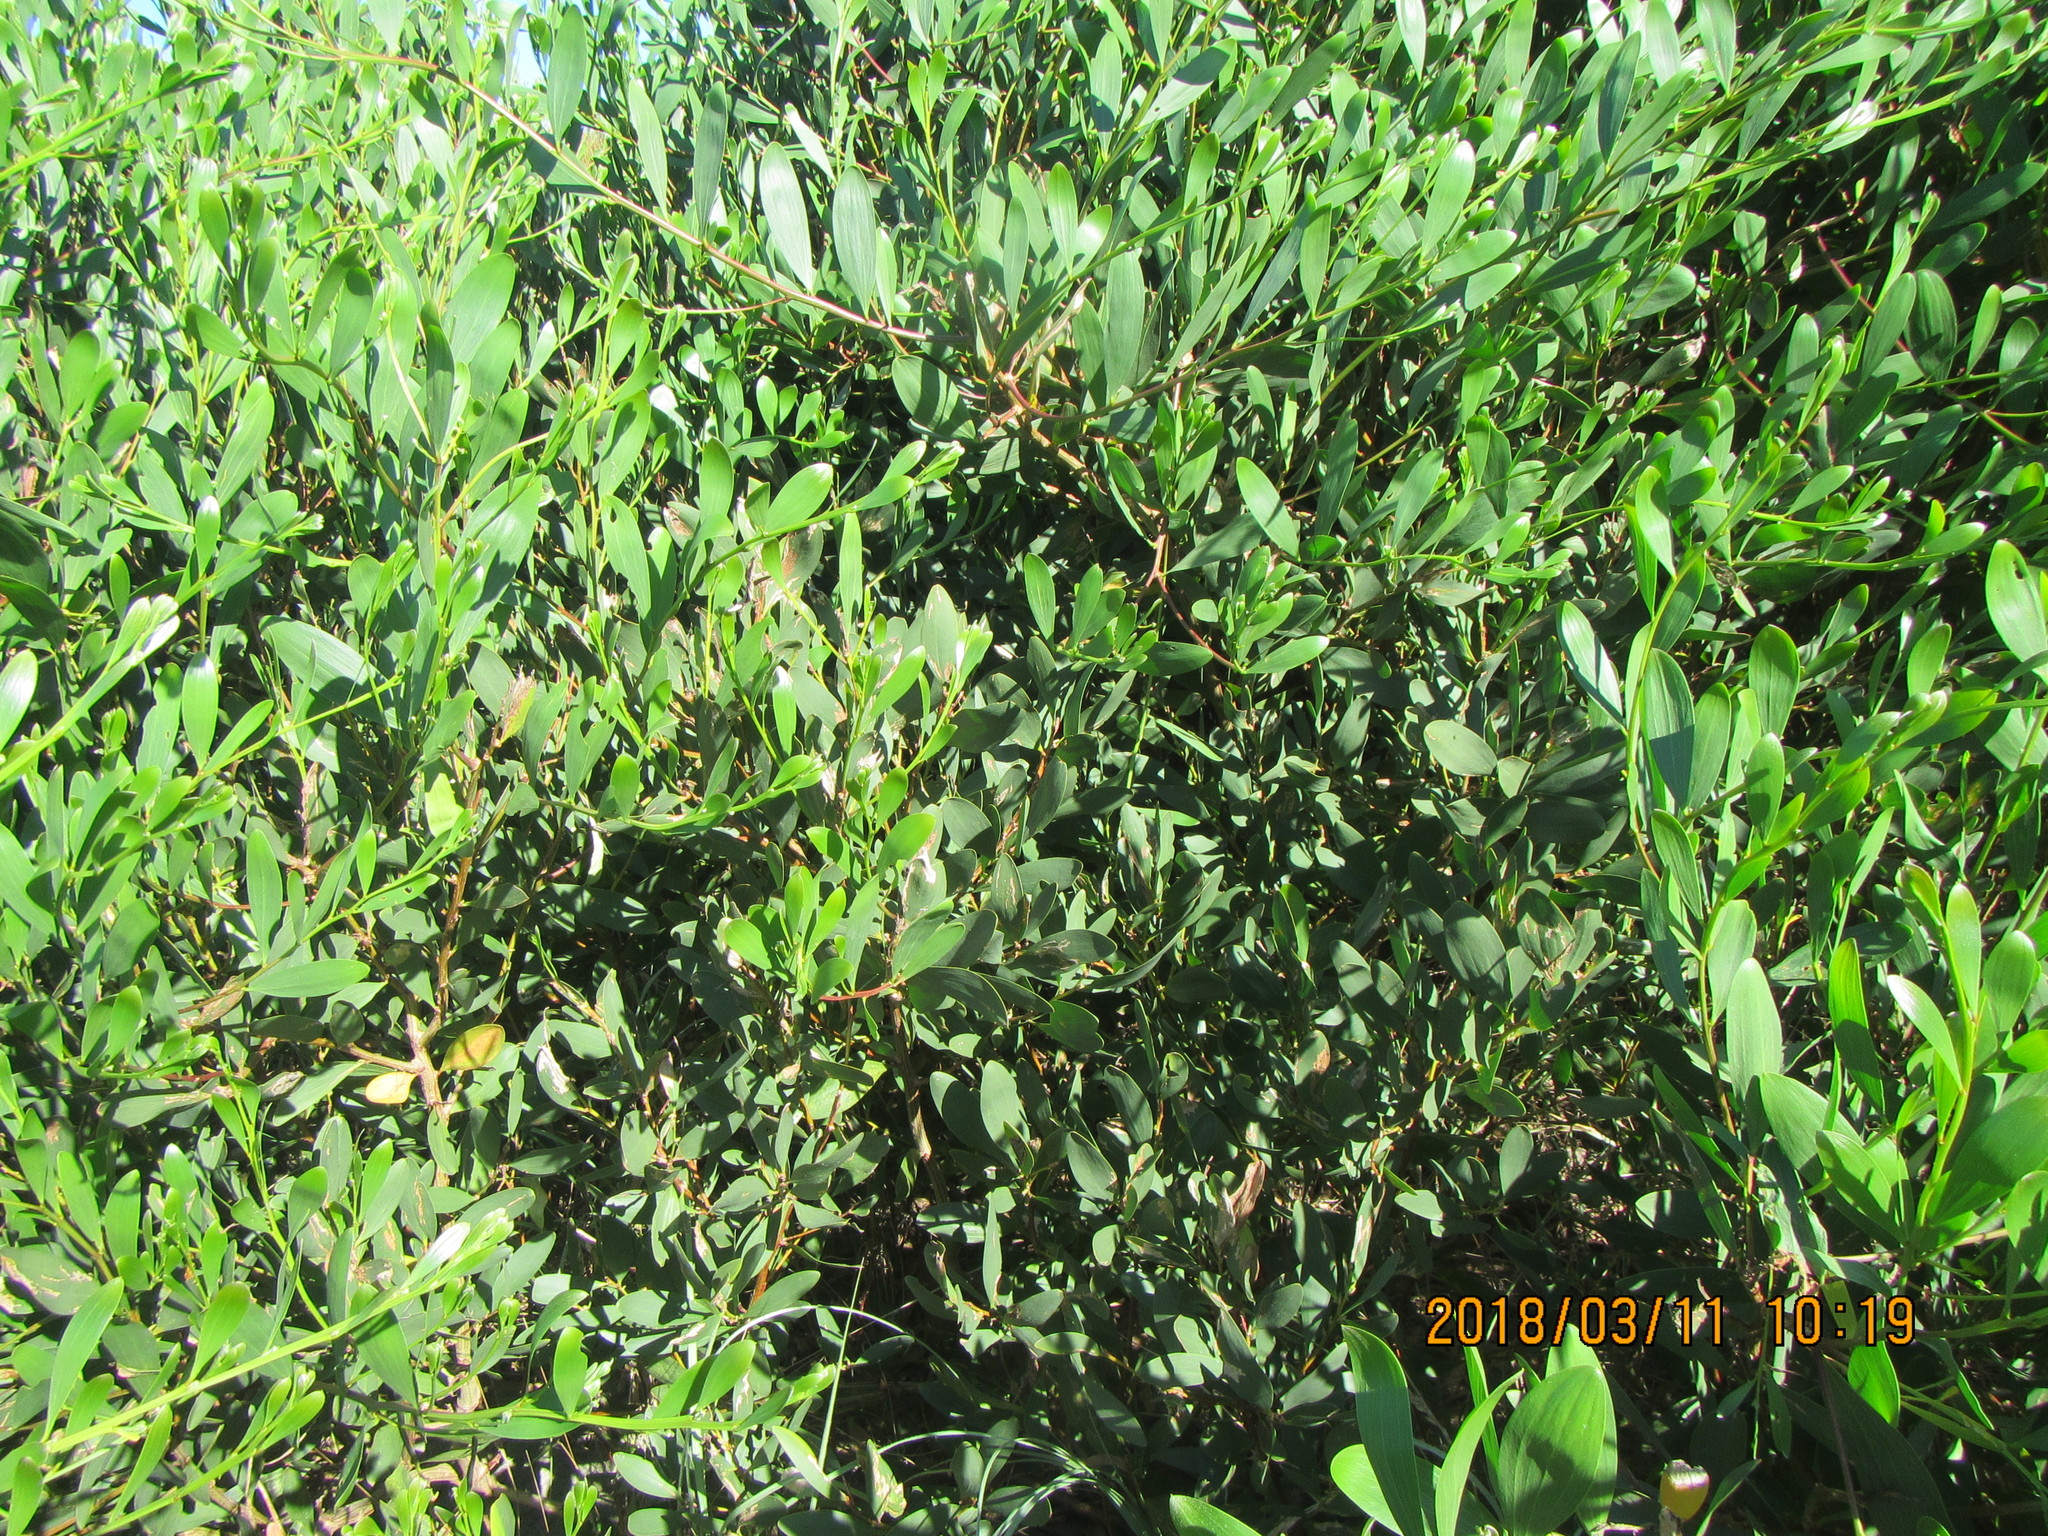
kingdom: Plantae
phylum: Tracheophyta
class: Magnoliopsida
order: Fabales
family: Fabaceae
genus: Acacia
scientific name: Acacia longifolia
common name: Sydney golden wattle
